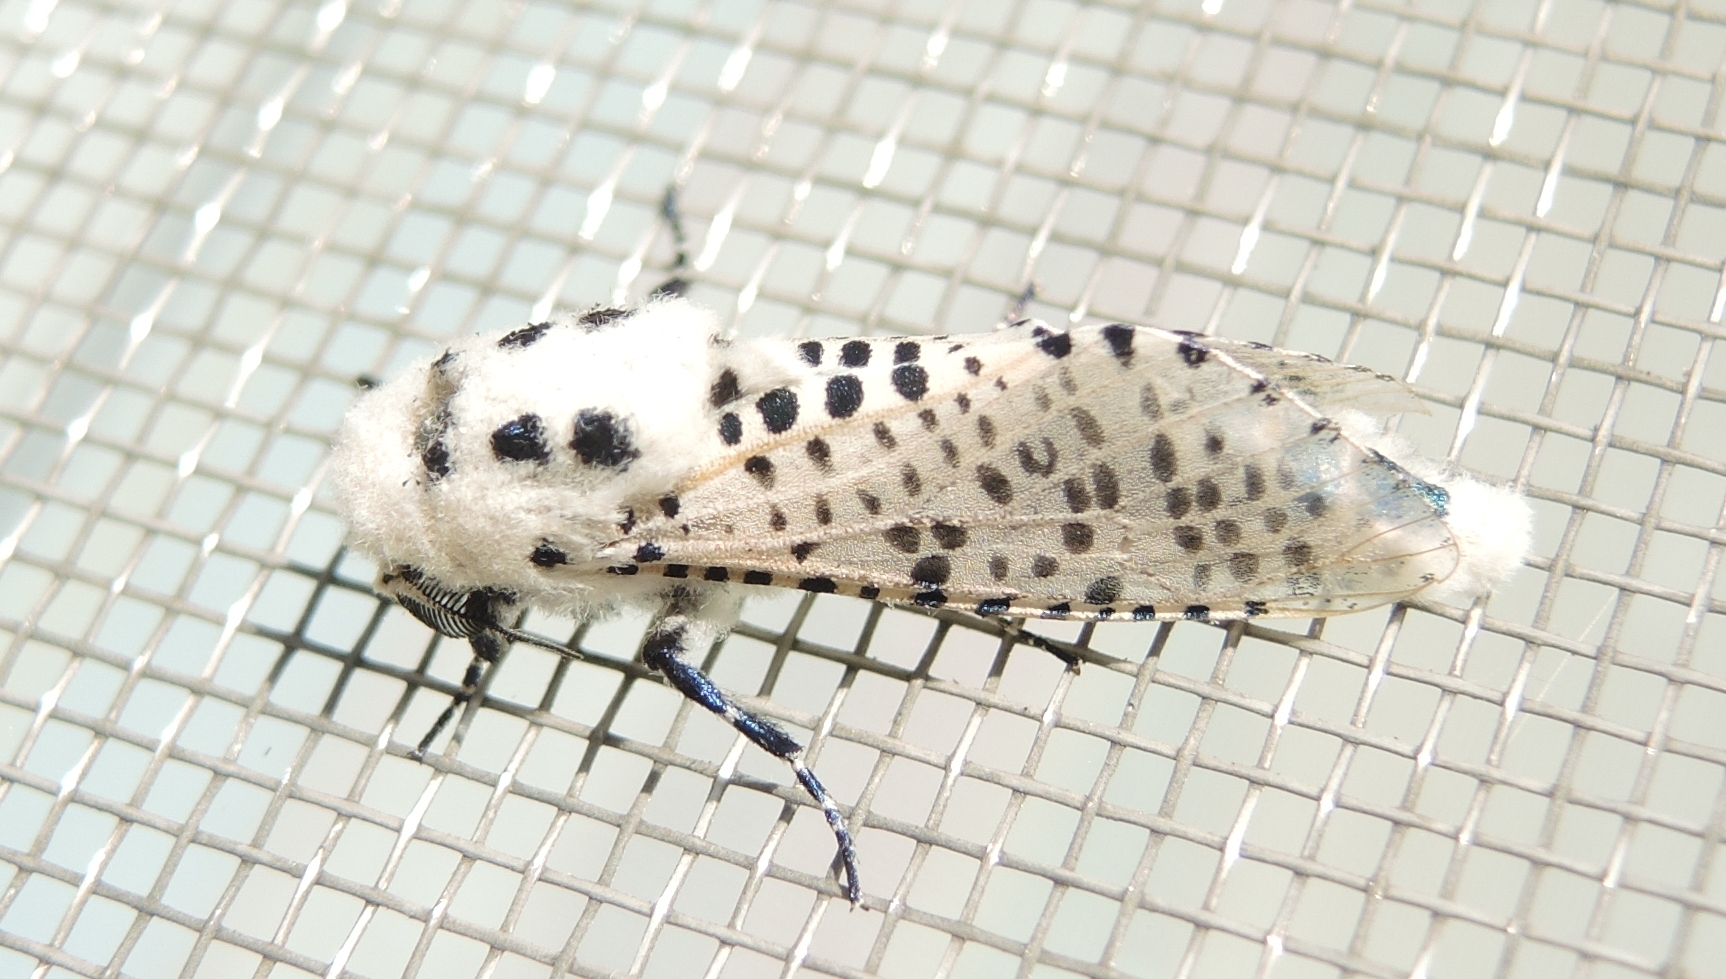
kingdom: Animalia
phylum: Arthropoda
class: Insecta
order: Lepidoptera
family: Cossidae
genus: Zeuzera
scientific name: Zeuzera pyrina
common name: Leopard moth
